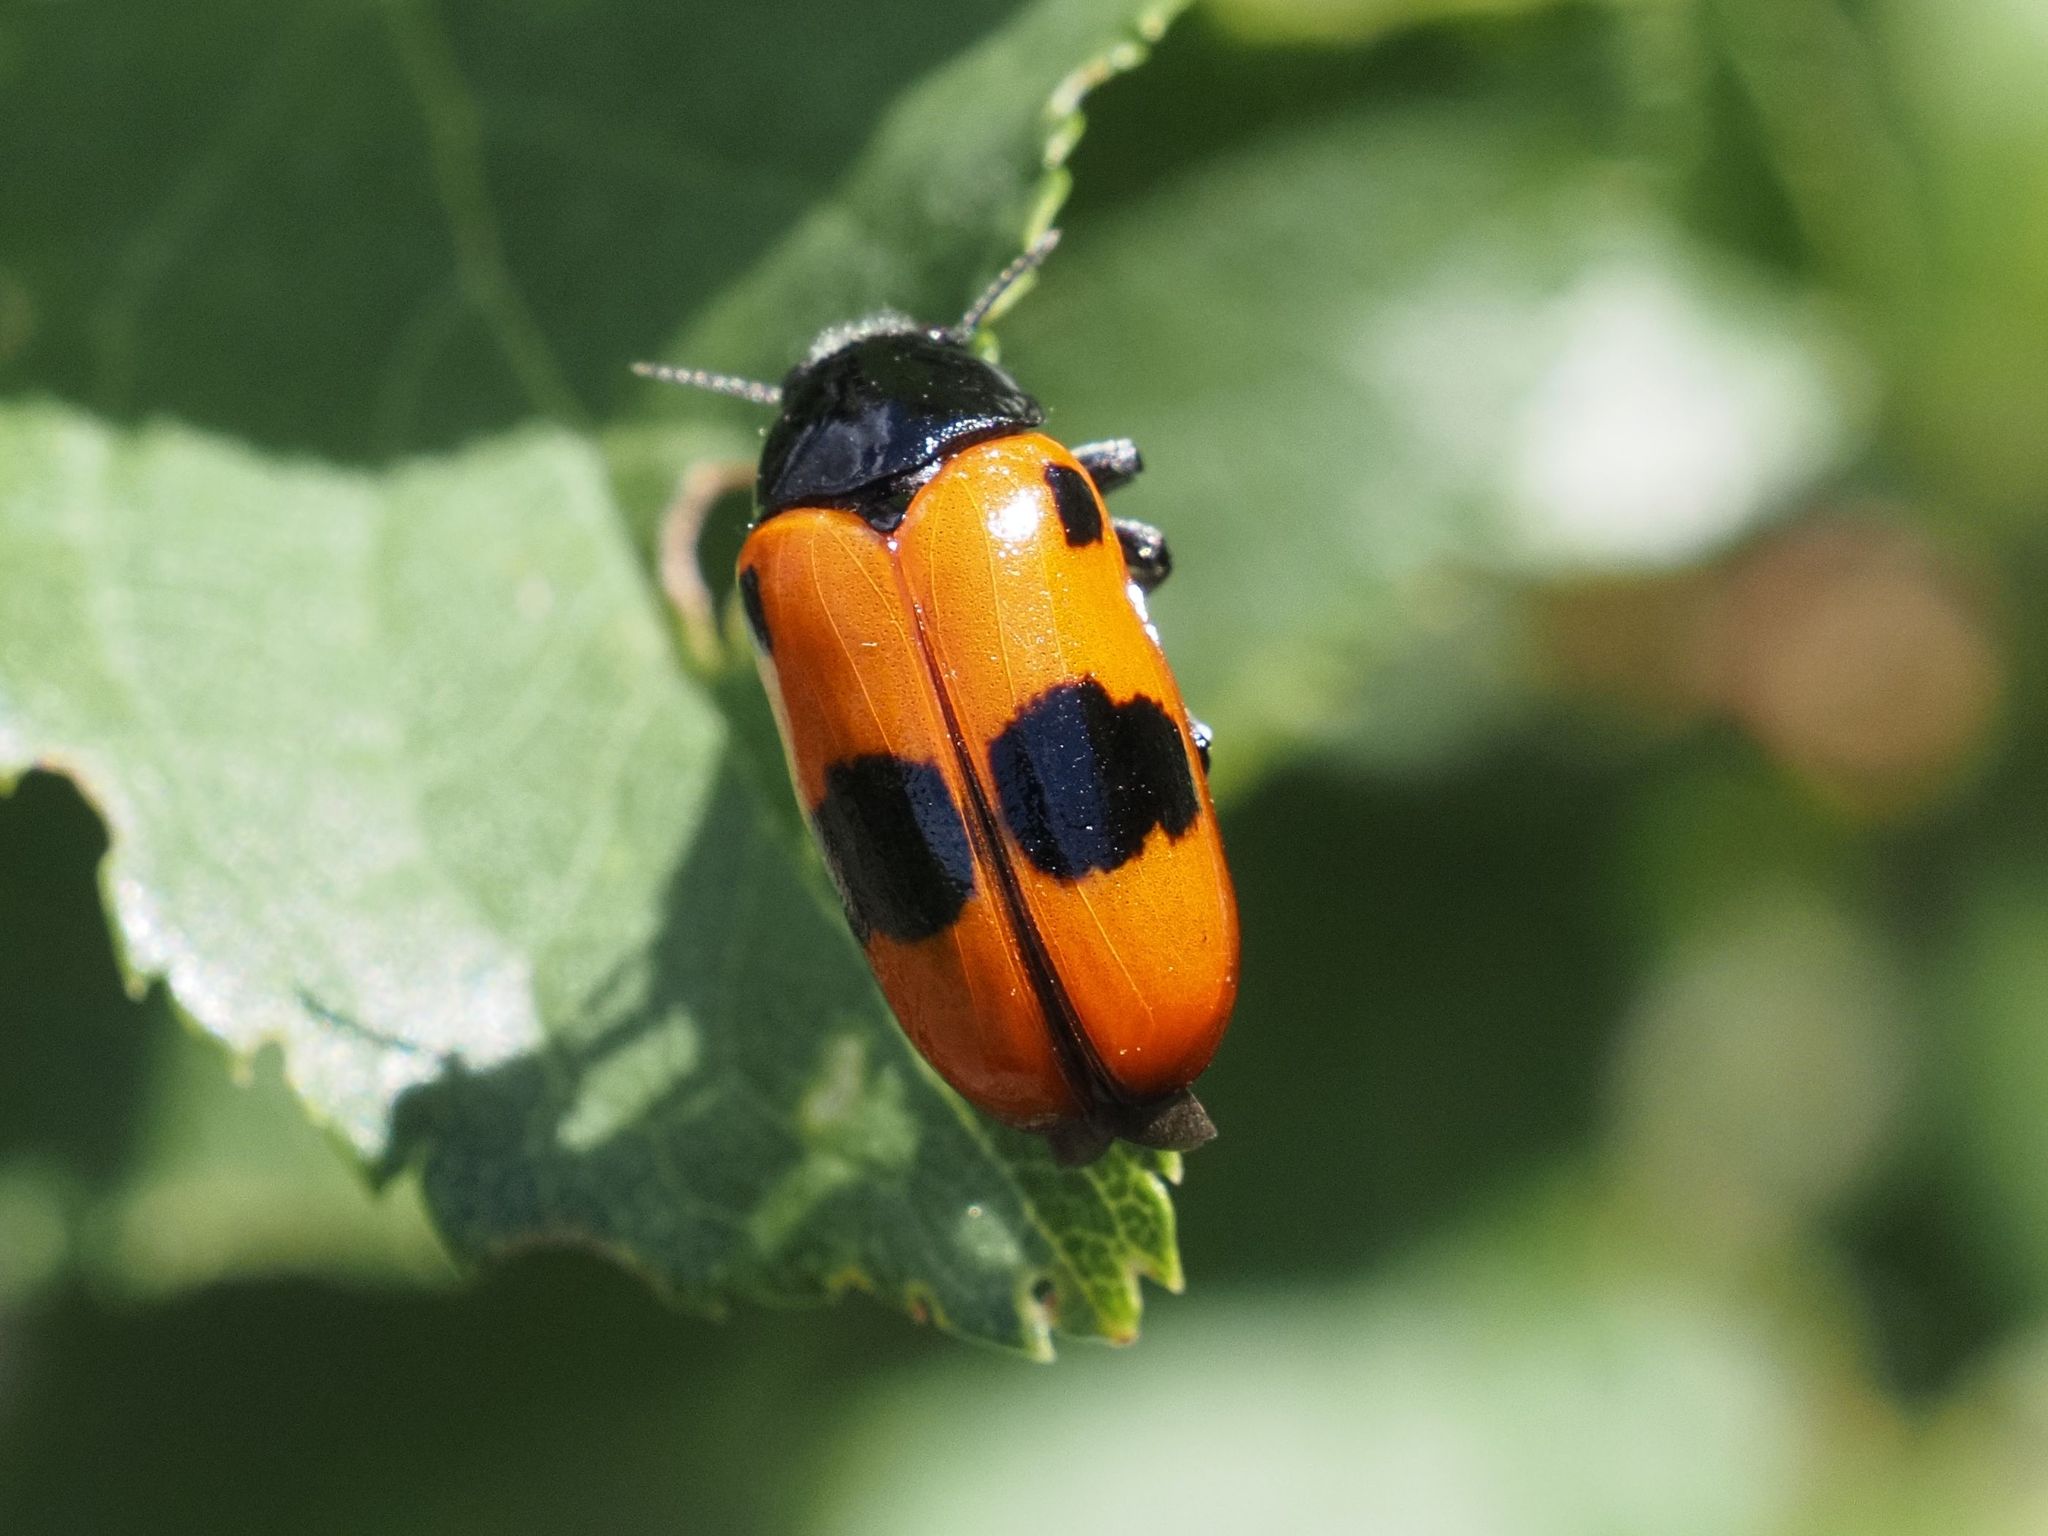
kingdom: Animalia
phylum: Arthropoda
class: Insecta
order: Coleoptera
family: Chrysomelidae
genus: Clytra
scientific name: Clytra laeviuscula
